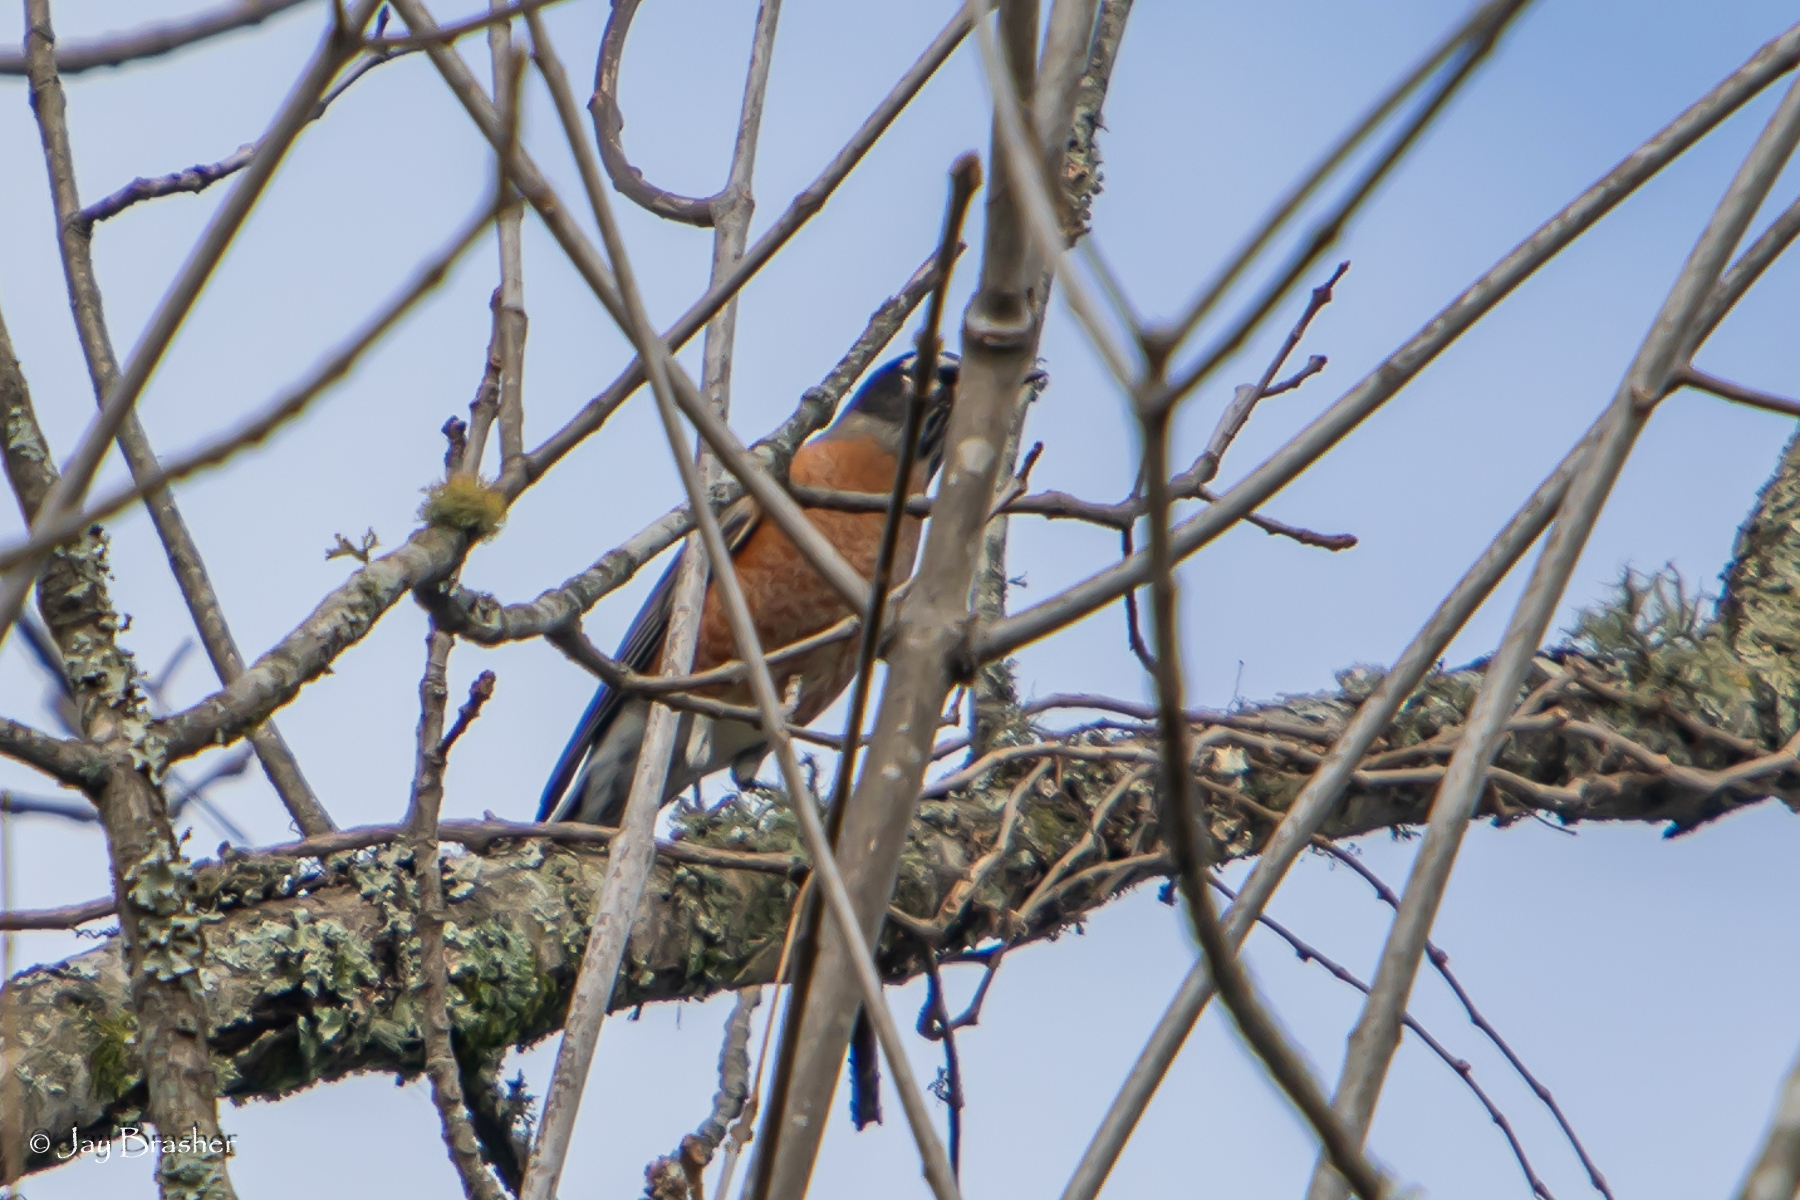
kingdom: Animalia
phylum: Chordata
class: Aves
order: Passeriformes
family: Turdidae
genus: Turdus
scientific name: Turdus migratorius
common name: American robin
